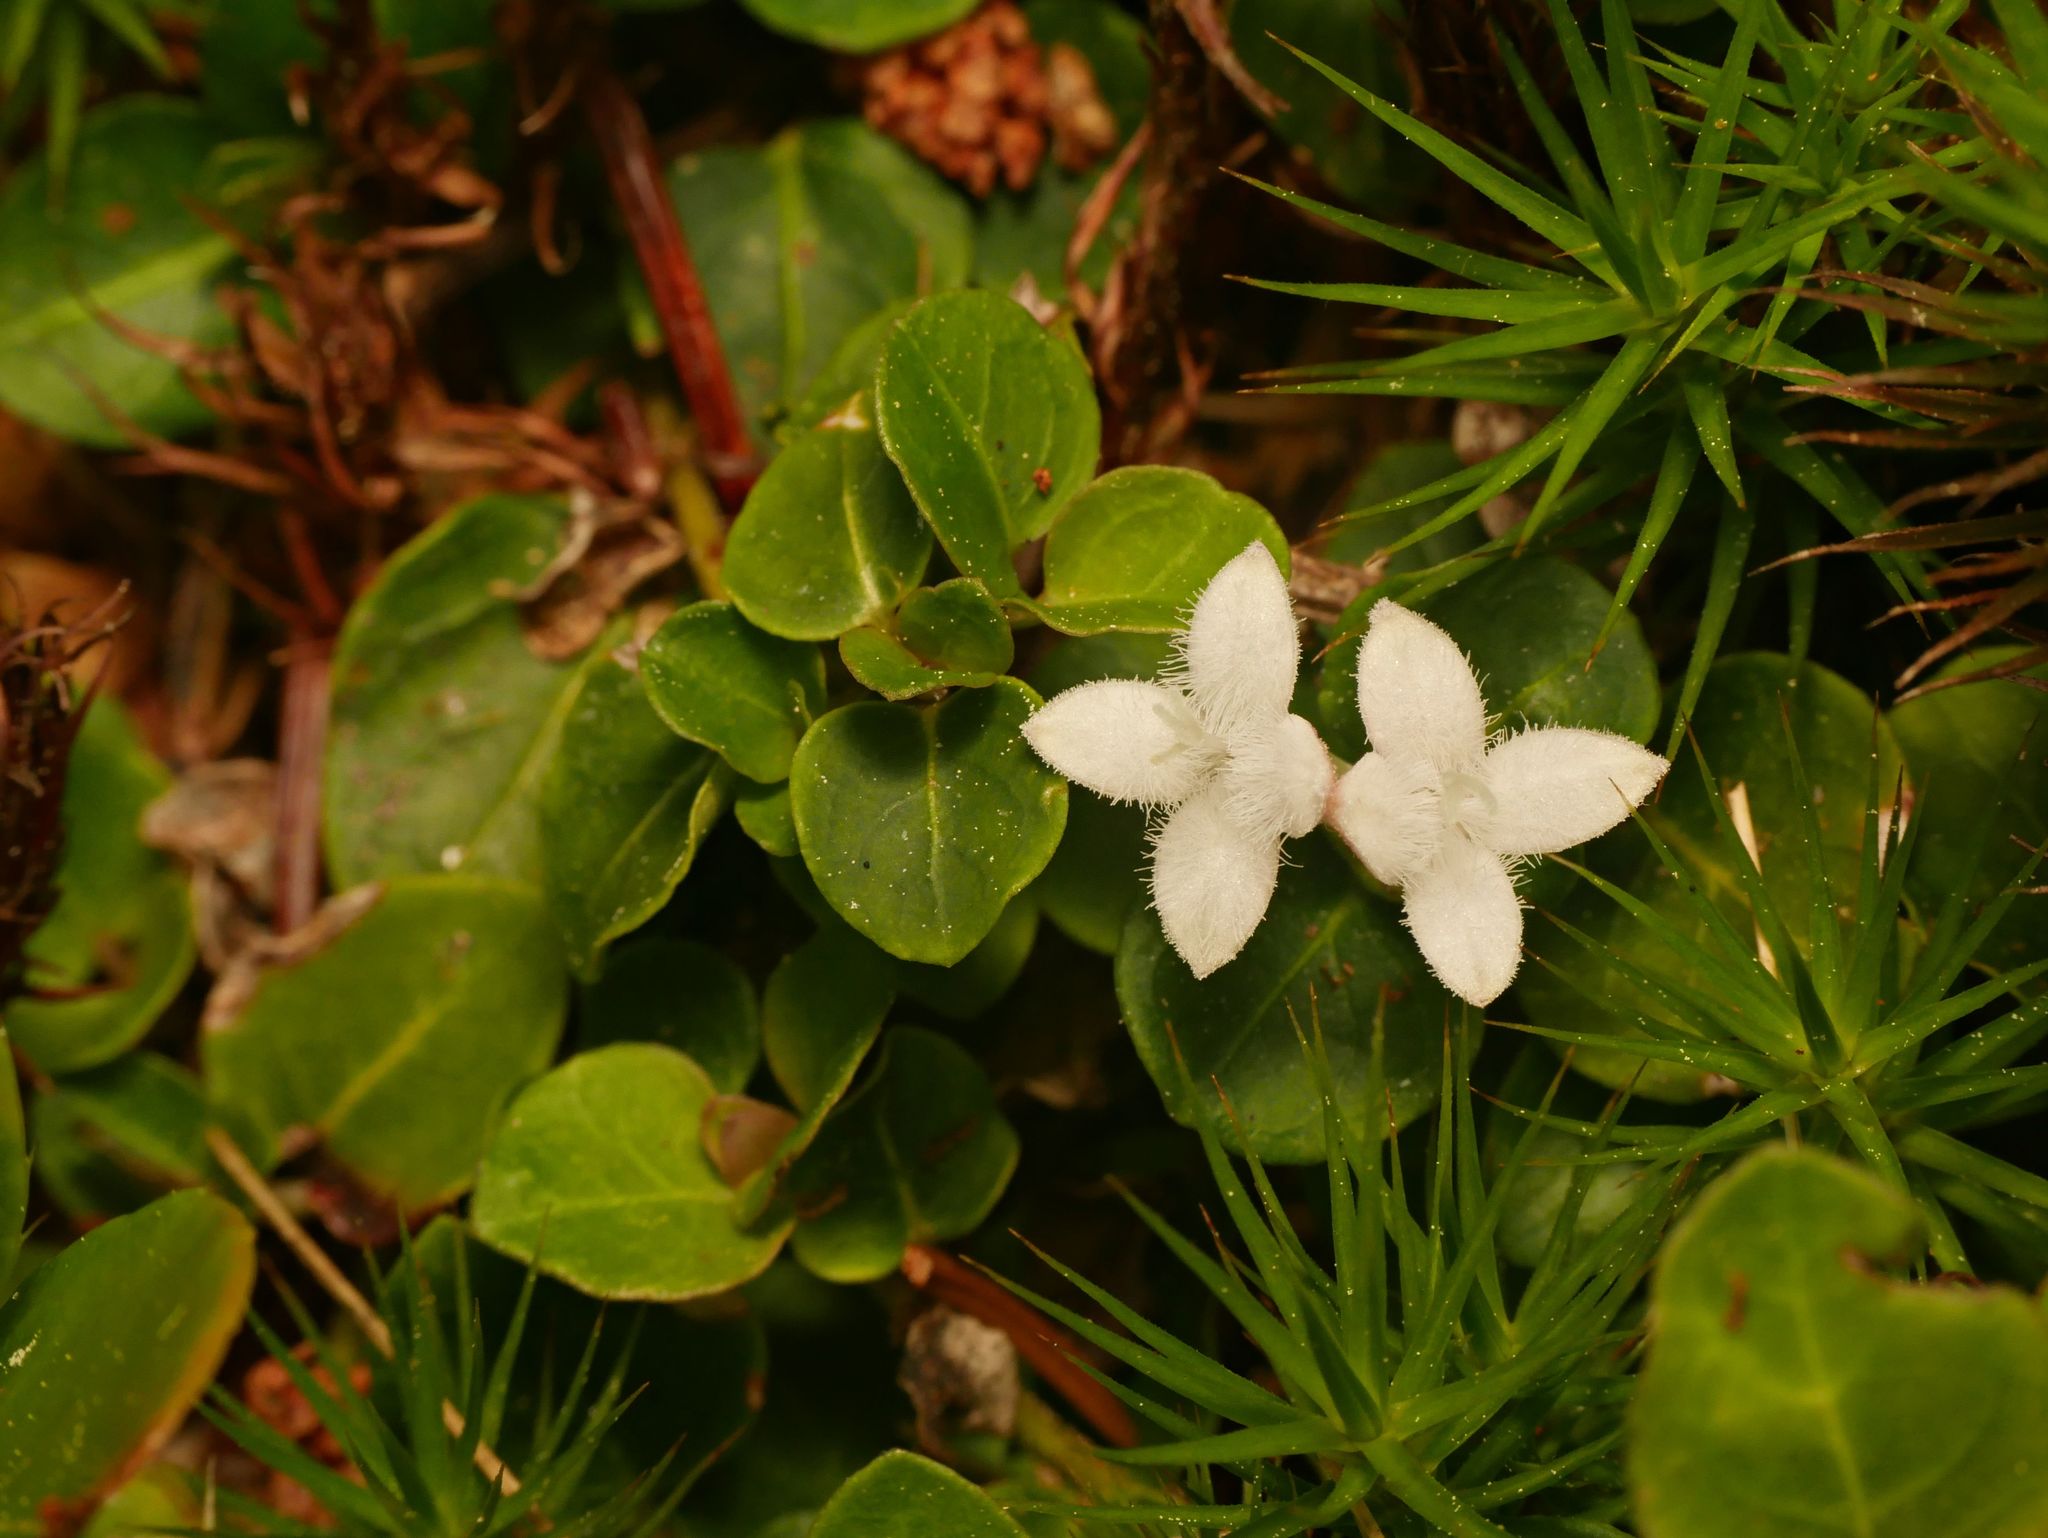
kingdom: Plantae
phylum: Tracheophyta
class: Magnoliopsida
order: Gentianales
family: Rubiaceae
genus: Mitchella
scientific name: Mitchella repens
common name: Partridge-berry
